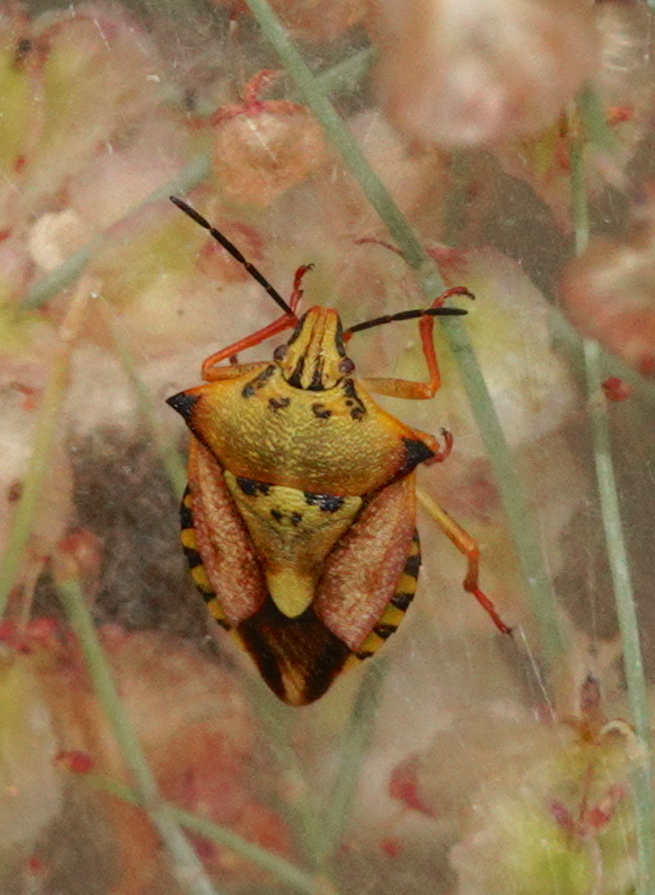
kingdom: Animalia
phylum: Arthropoda
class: Insecta
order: Hemiptera
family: Pentatomidae
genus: Carpocoris
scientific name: Carpocoris mediterraneus
